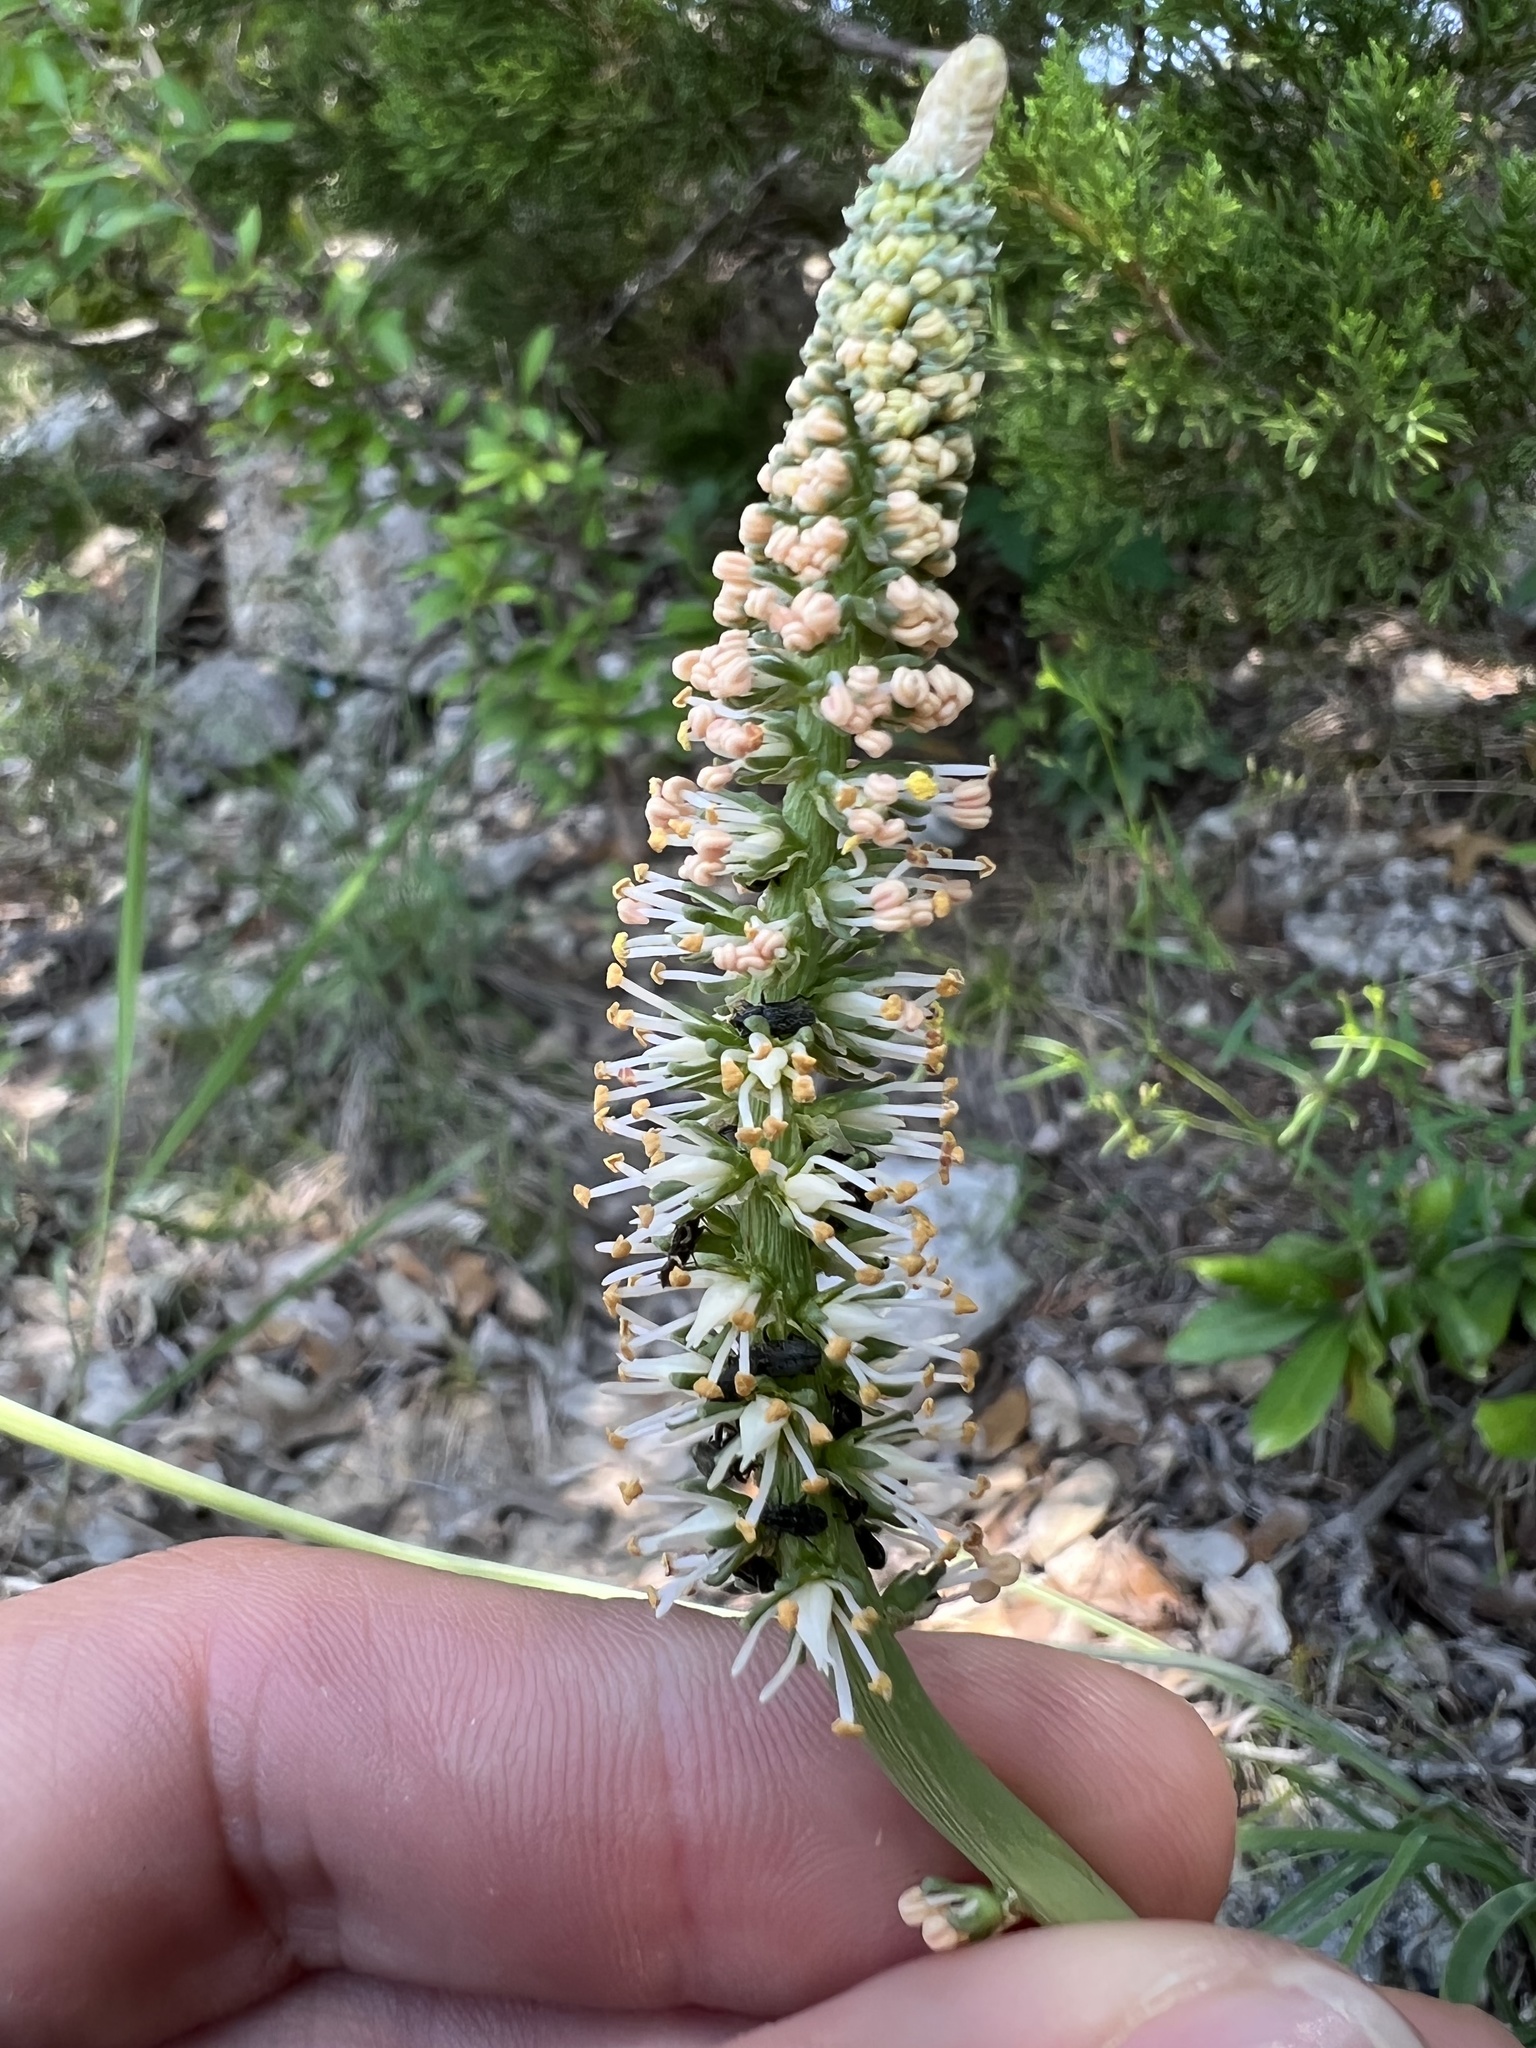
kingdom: Plantae
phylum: Tracheophyta
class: Liliopsida
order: Liliales
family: Melanthiaceae
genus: Schoenocaulon
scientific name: Schoenocaulon texanum
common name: Texas feather-shank
